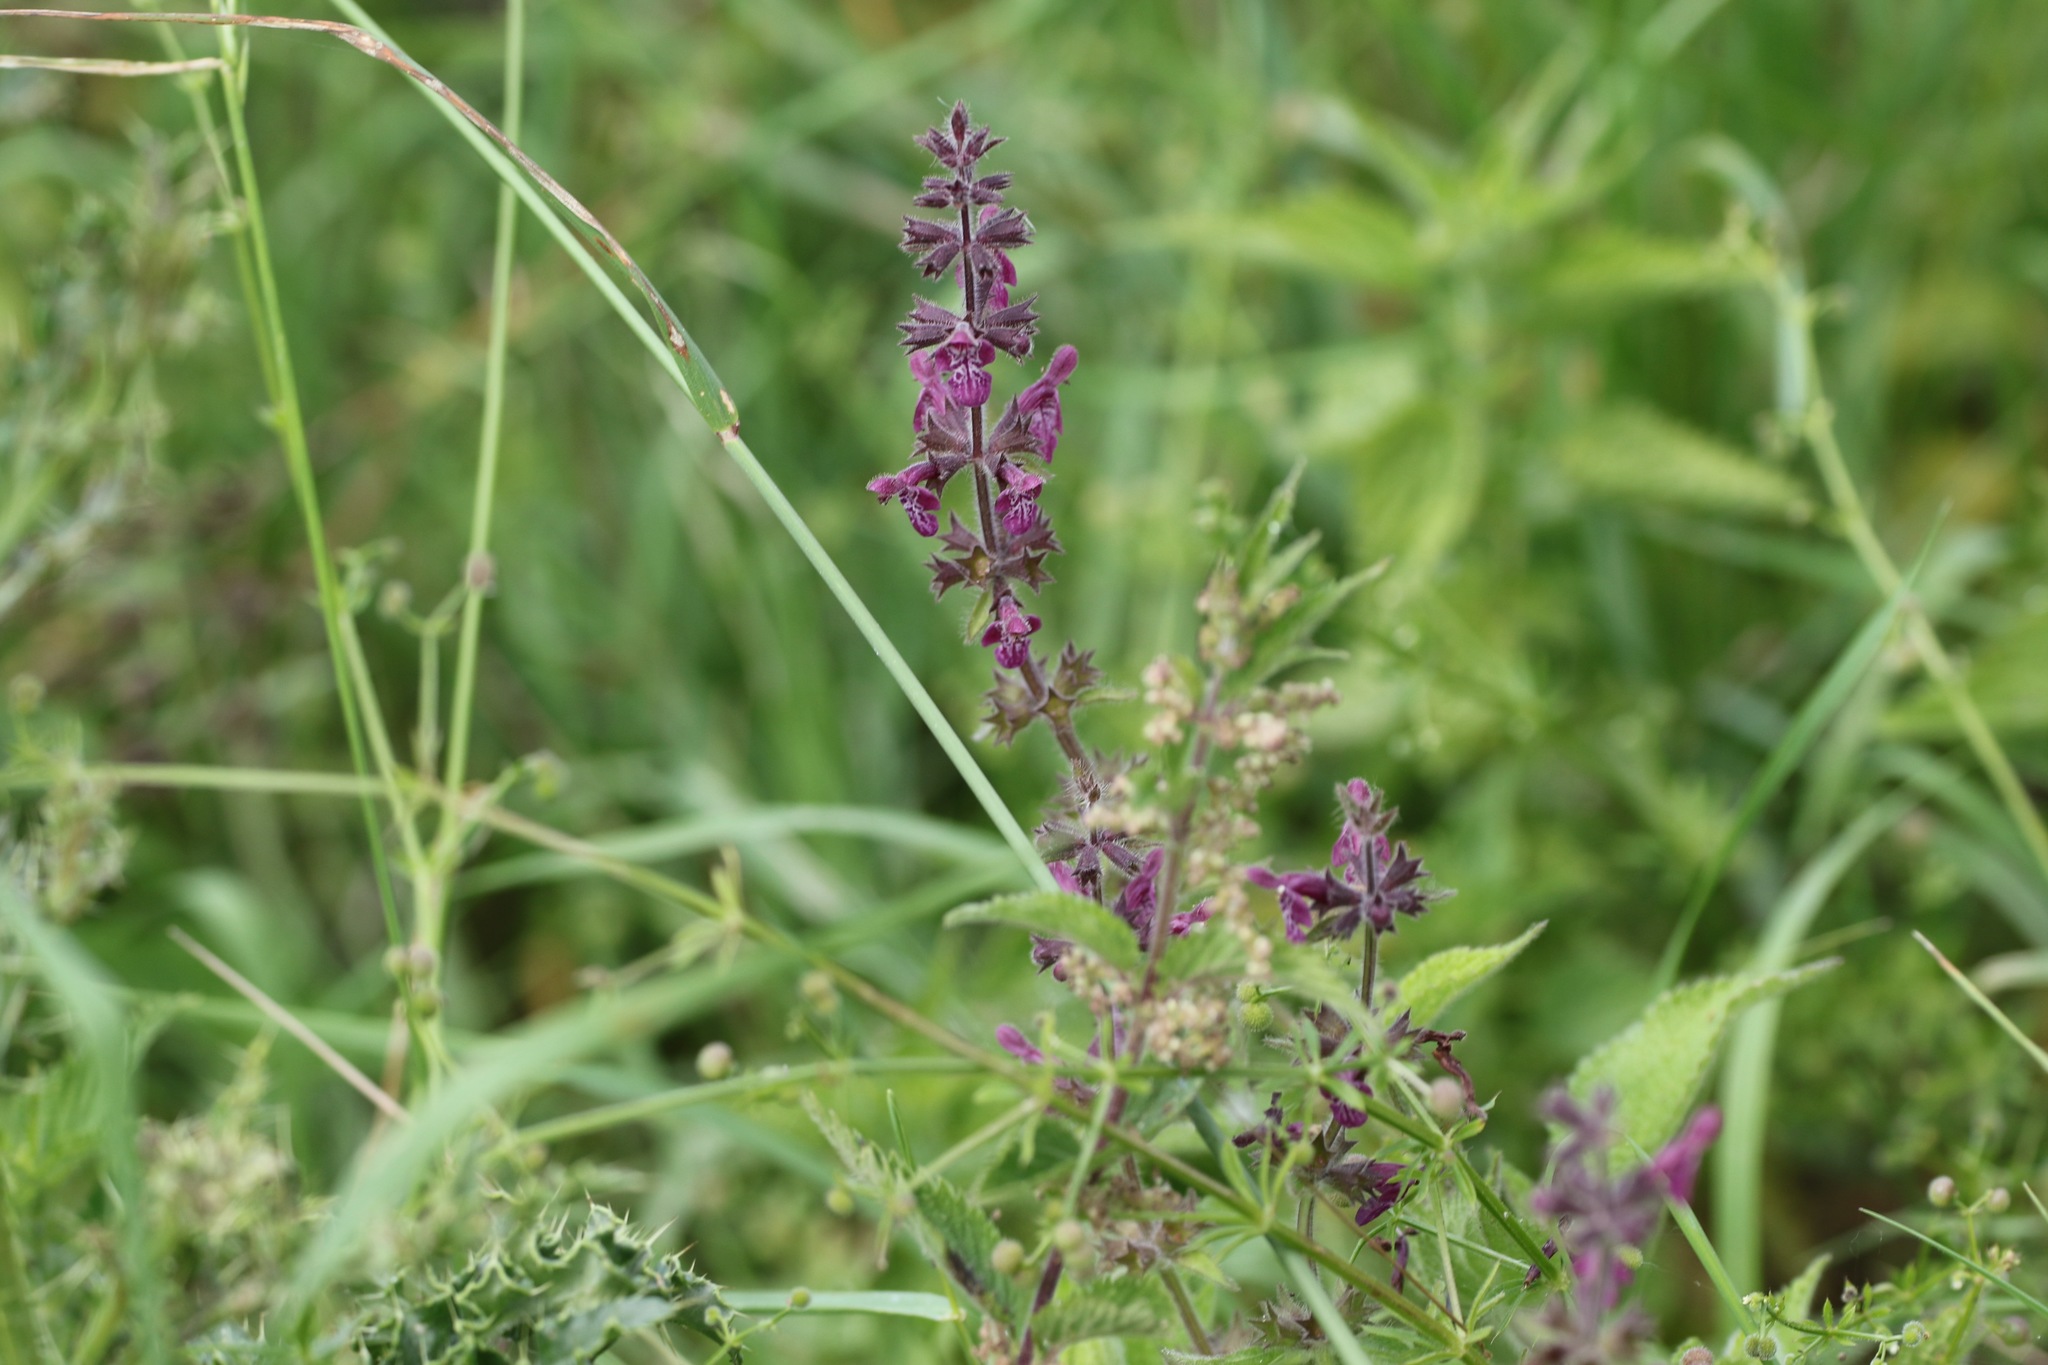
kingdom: Plantae
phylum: Tracheophyta
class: Magnoliopsida
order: Lamiales
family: Lamiaceae
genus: Stachys
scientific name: Stachys sylvatica
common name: Hedge woundwort
